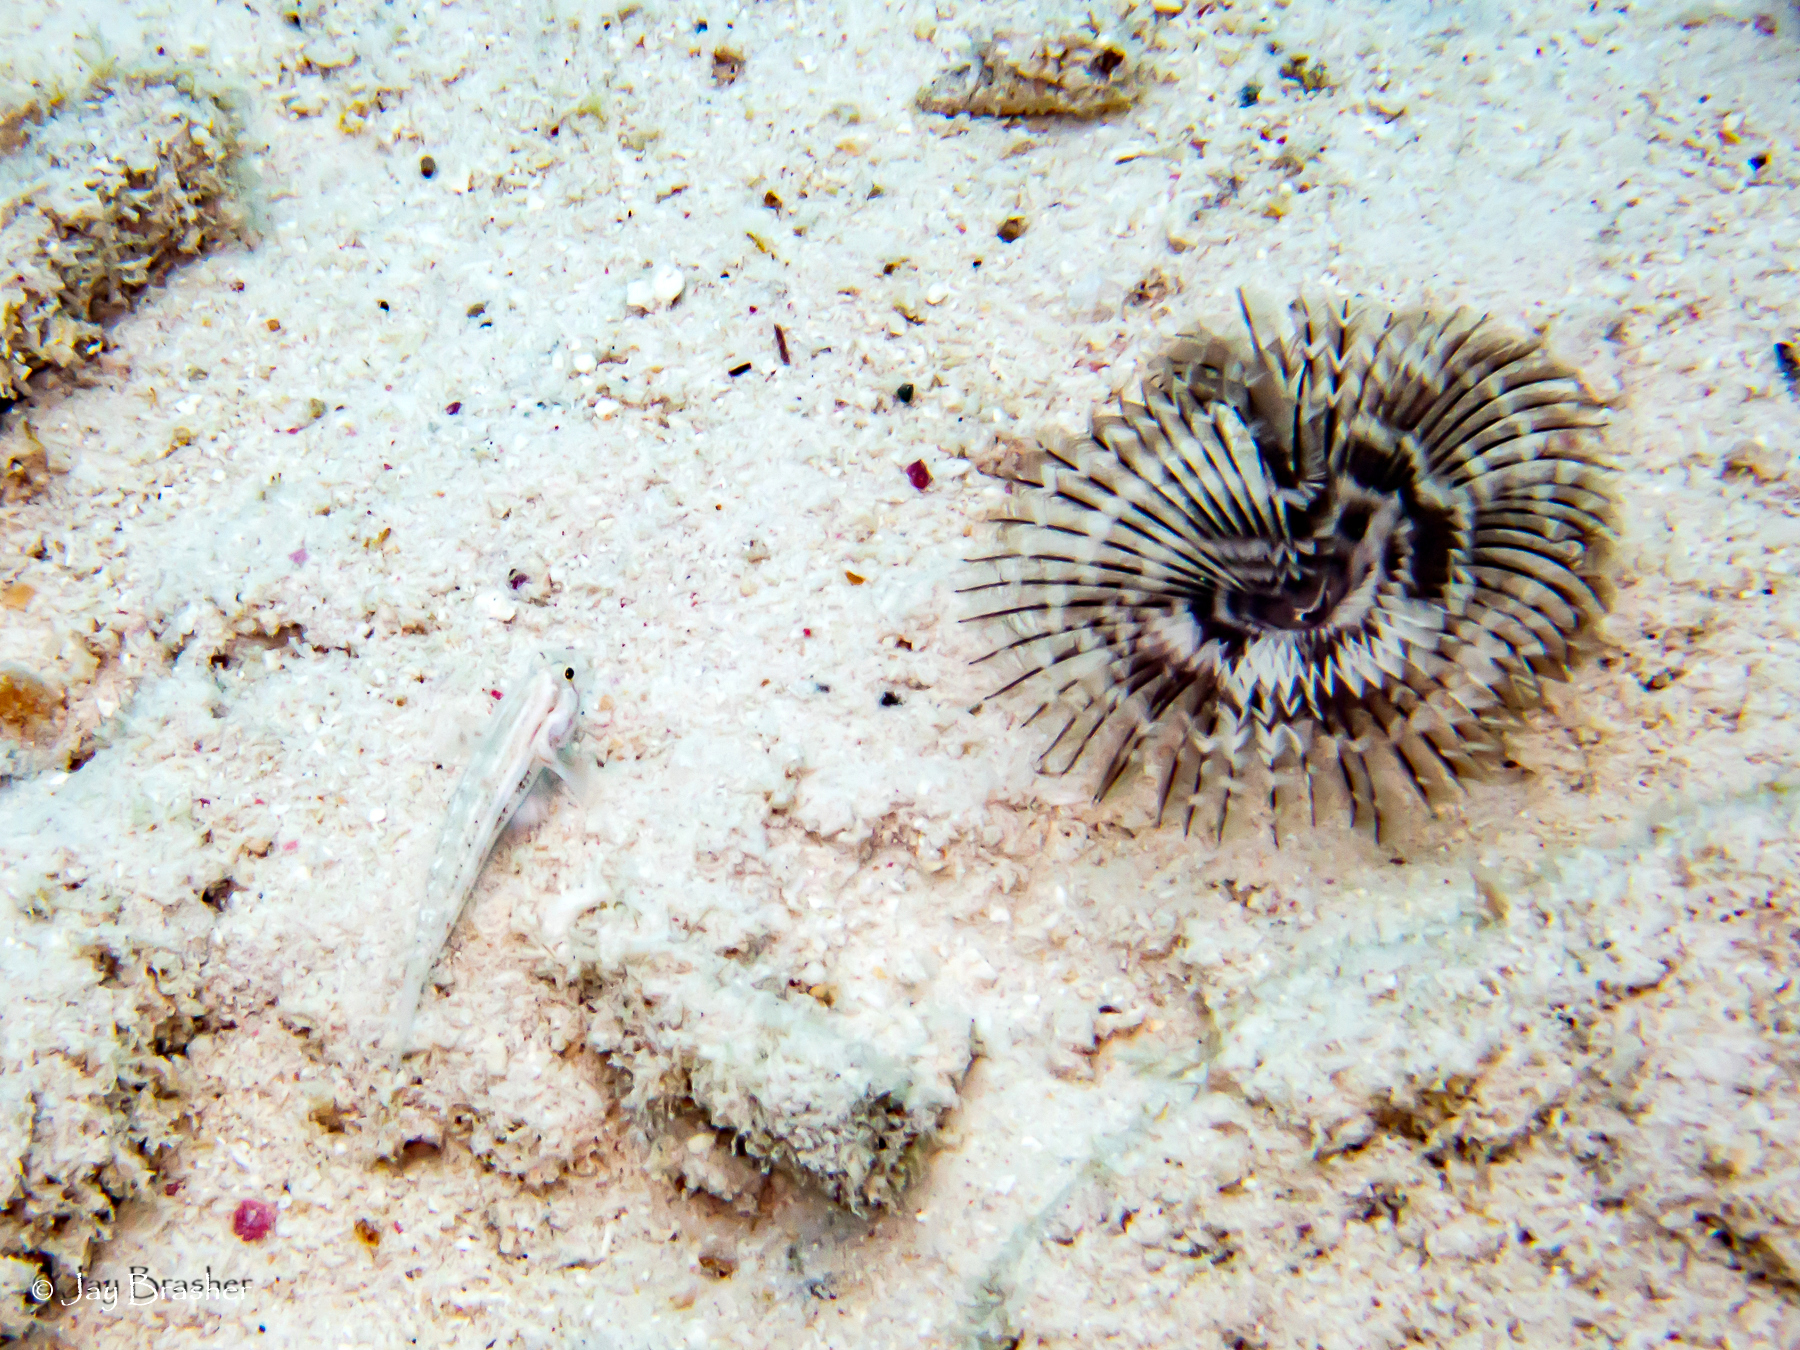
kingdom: Animalia
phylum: Chordata
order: Perciformes
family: Gobiidae
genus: Gnatholepis
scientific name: Gnatholepis thompsoni
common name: Goldspot goby
